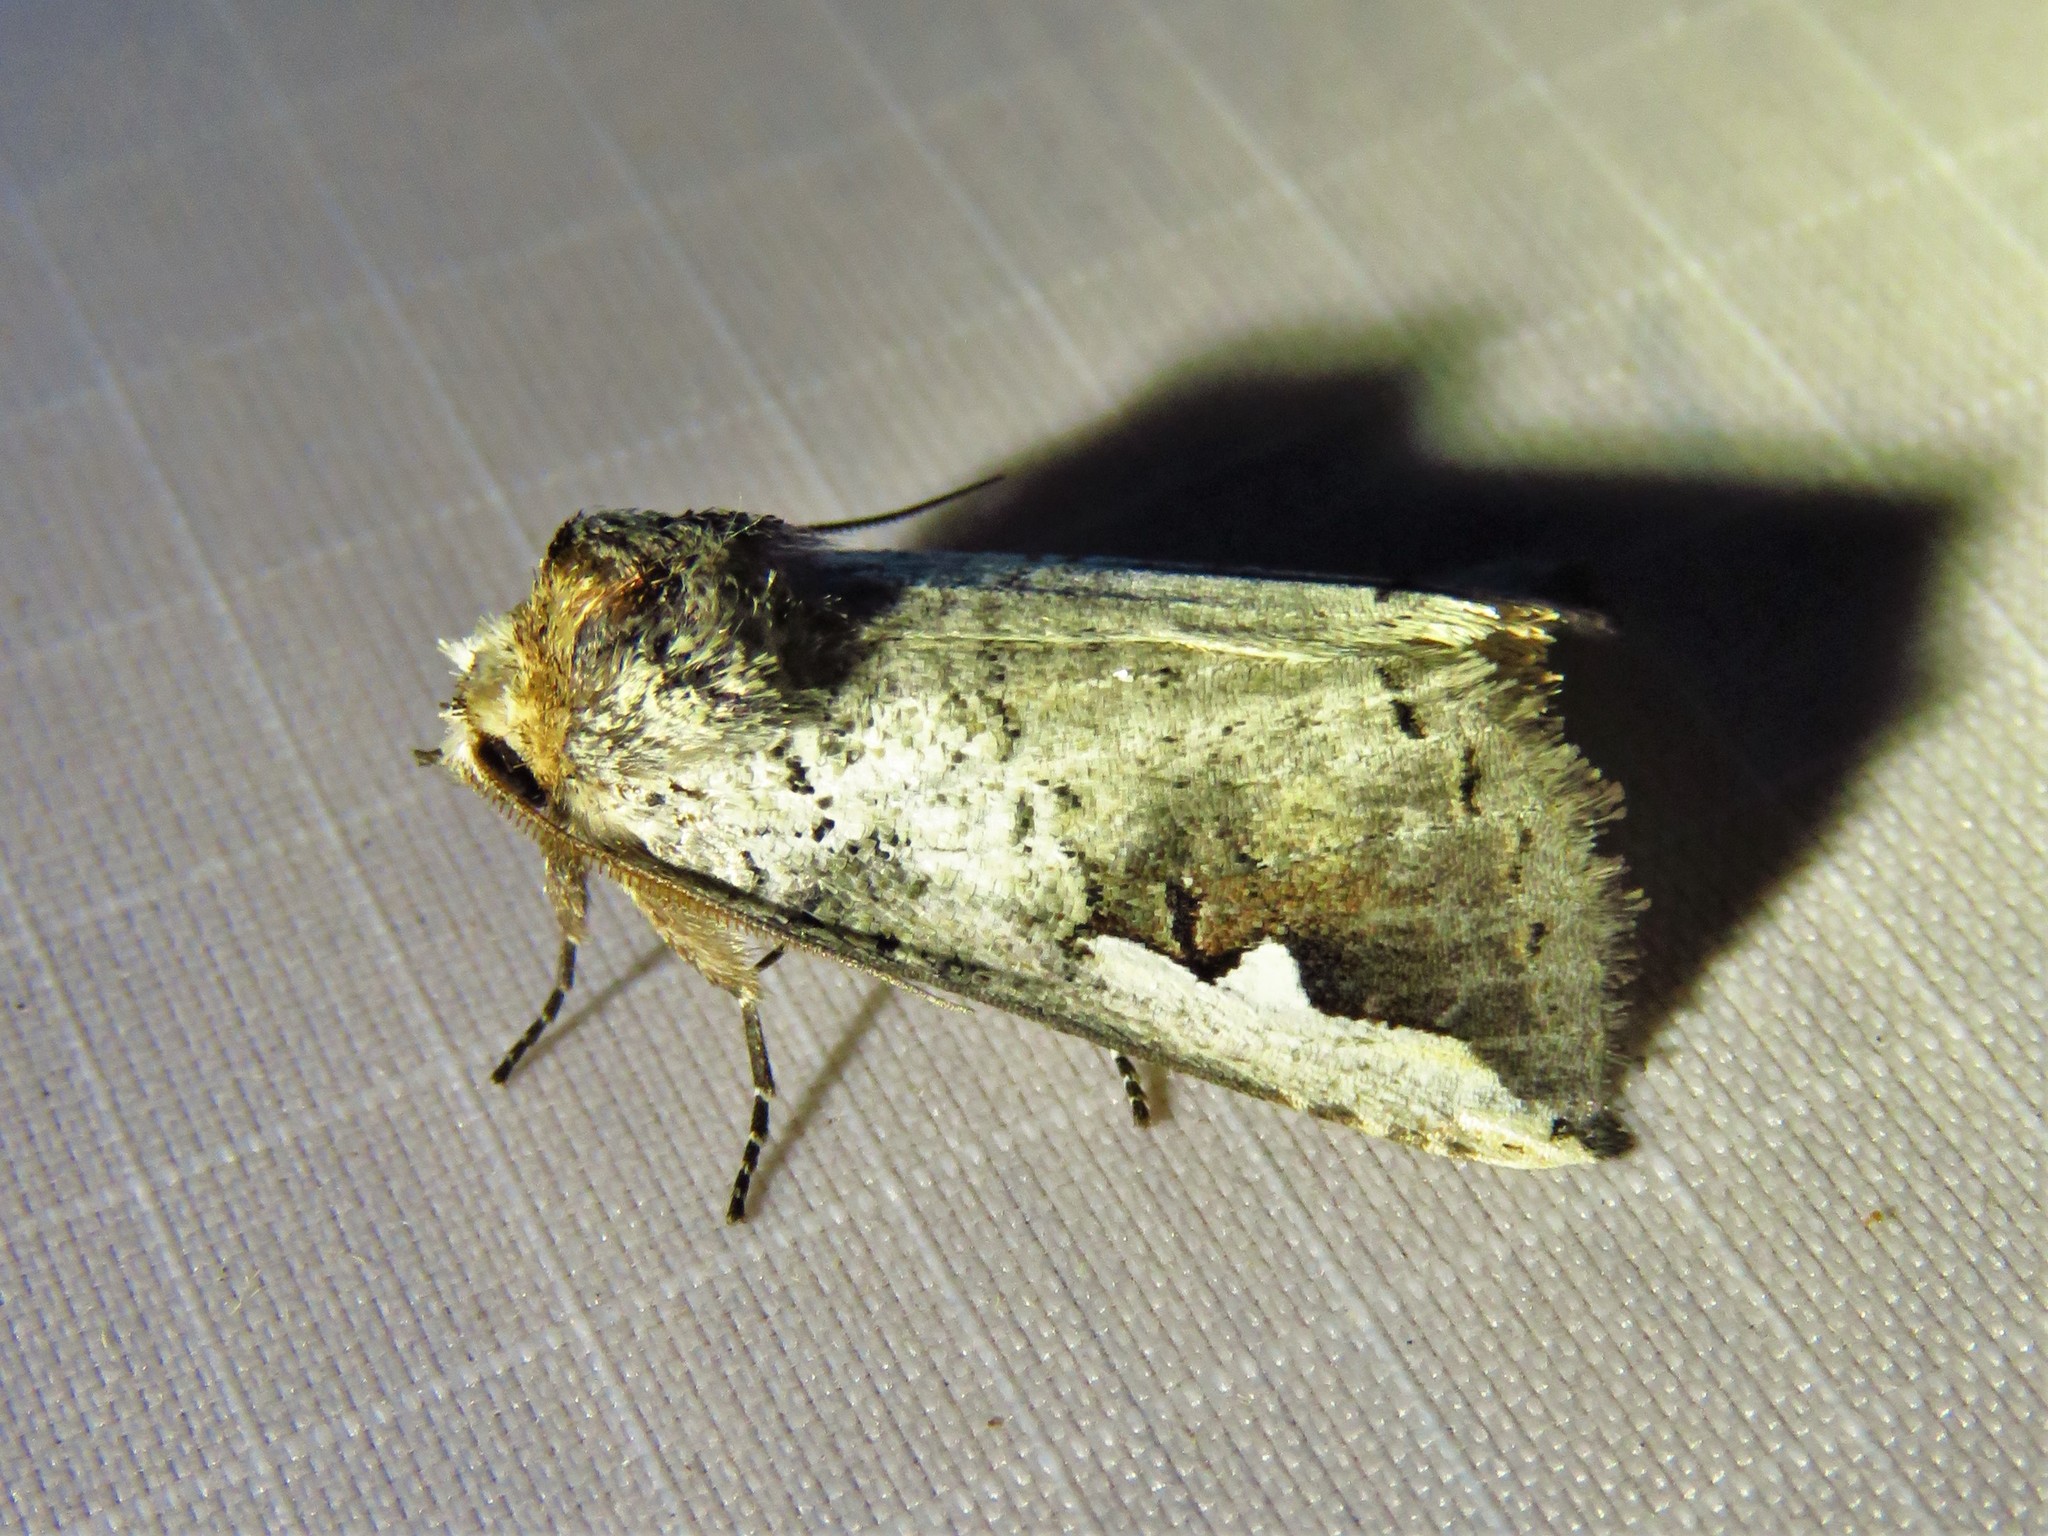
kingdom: Animalia
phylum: Arthropoda
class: Insecta
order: Lepidoptera
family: Notodontidae
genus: Symmerista
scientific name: Symmerista albifrons
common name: White-headed prominent
